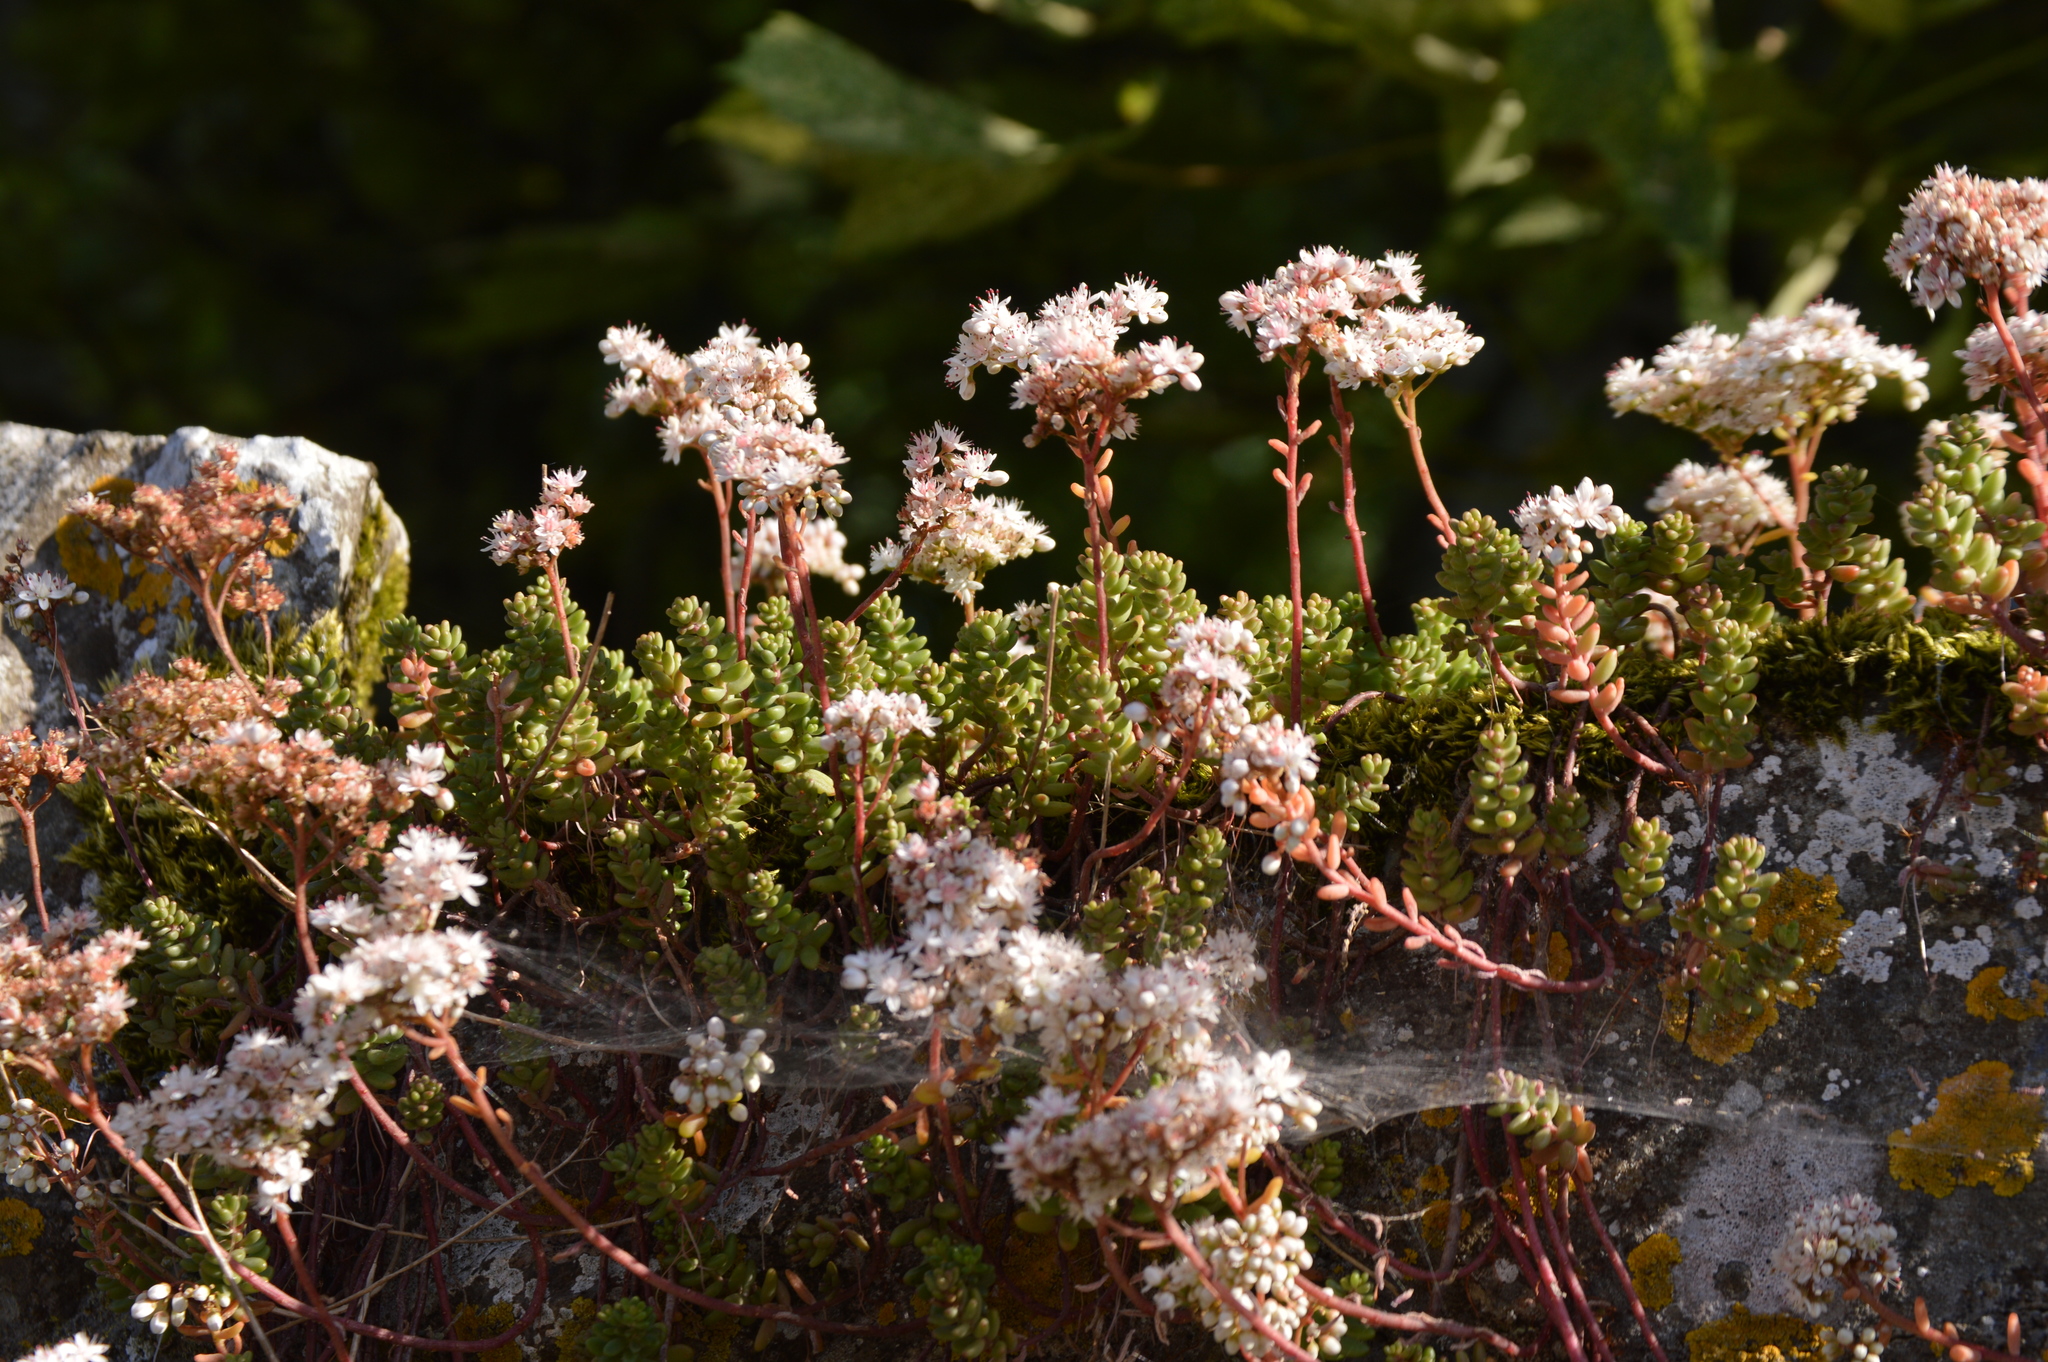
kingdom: Plantae
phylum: Tracheophyta
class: Magnoliopsida
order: Saxifragales
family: Crassulaceae
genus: Sedum
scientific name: Sedum album
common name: White stonecrop
